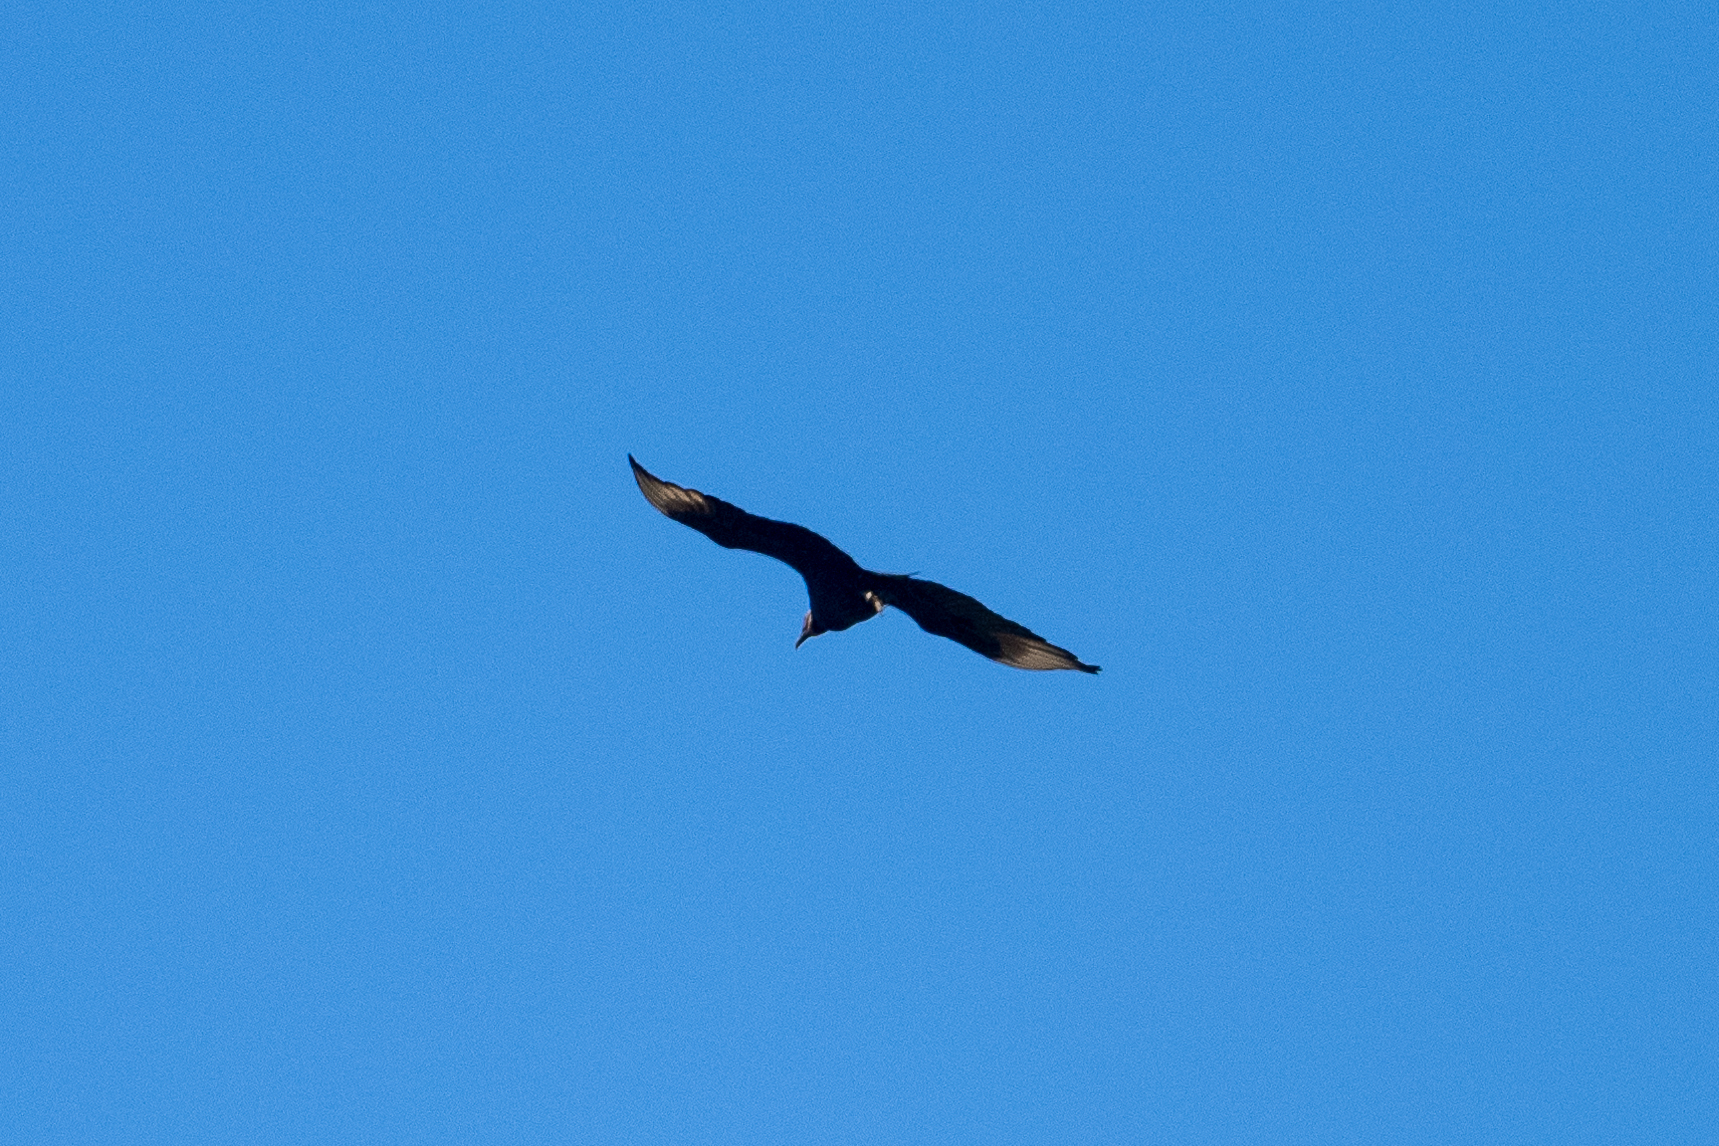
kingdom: Animalia
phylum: Chordata
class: Aves
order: Accipitriformes
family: Cathartidae
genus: Coragyps
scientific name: Coragyps atratus
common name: Black vulture
